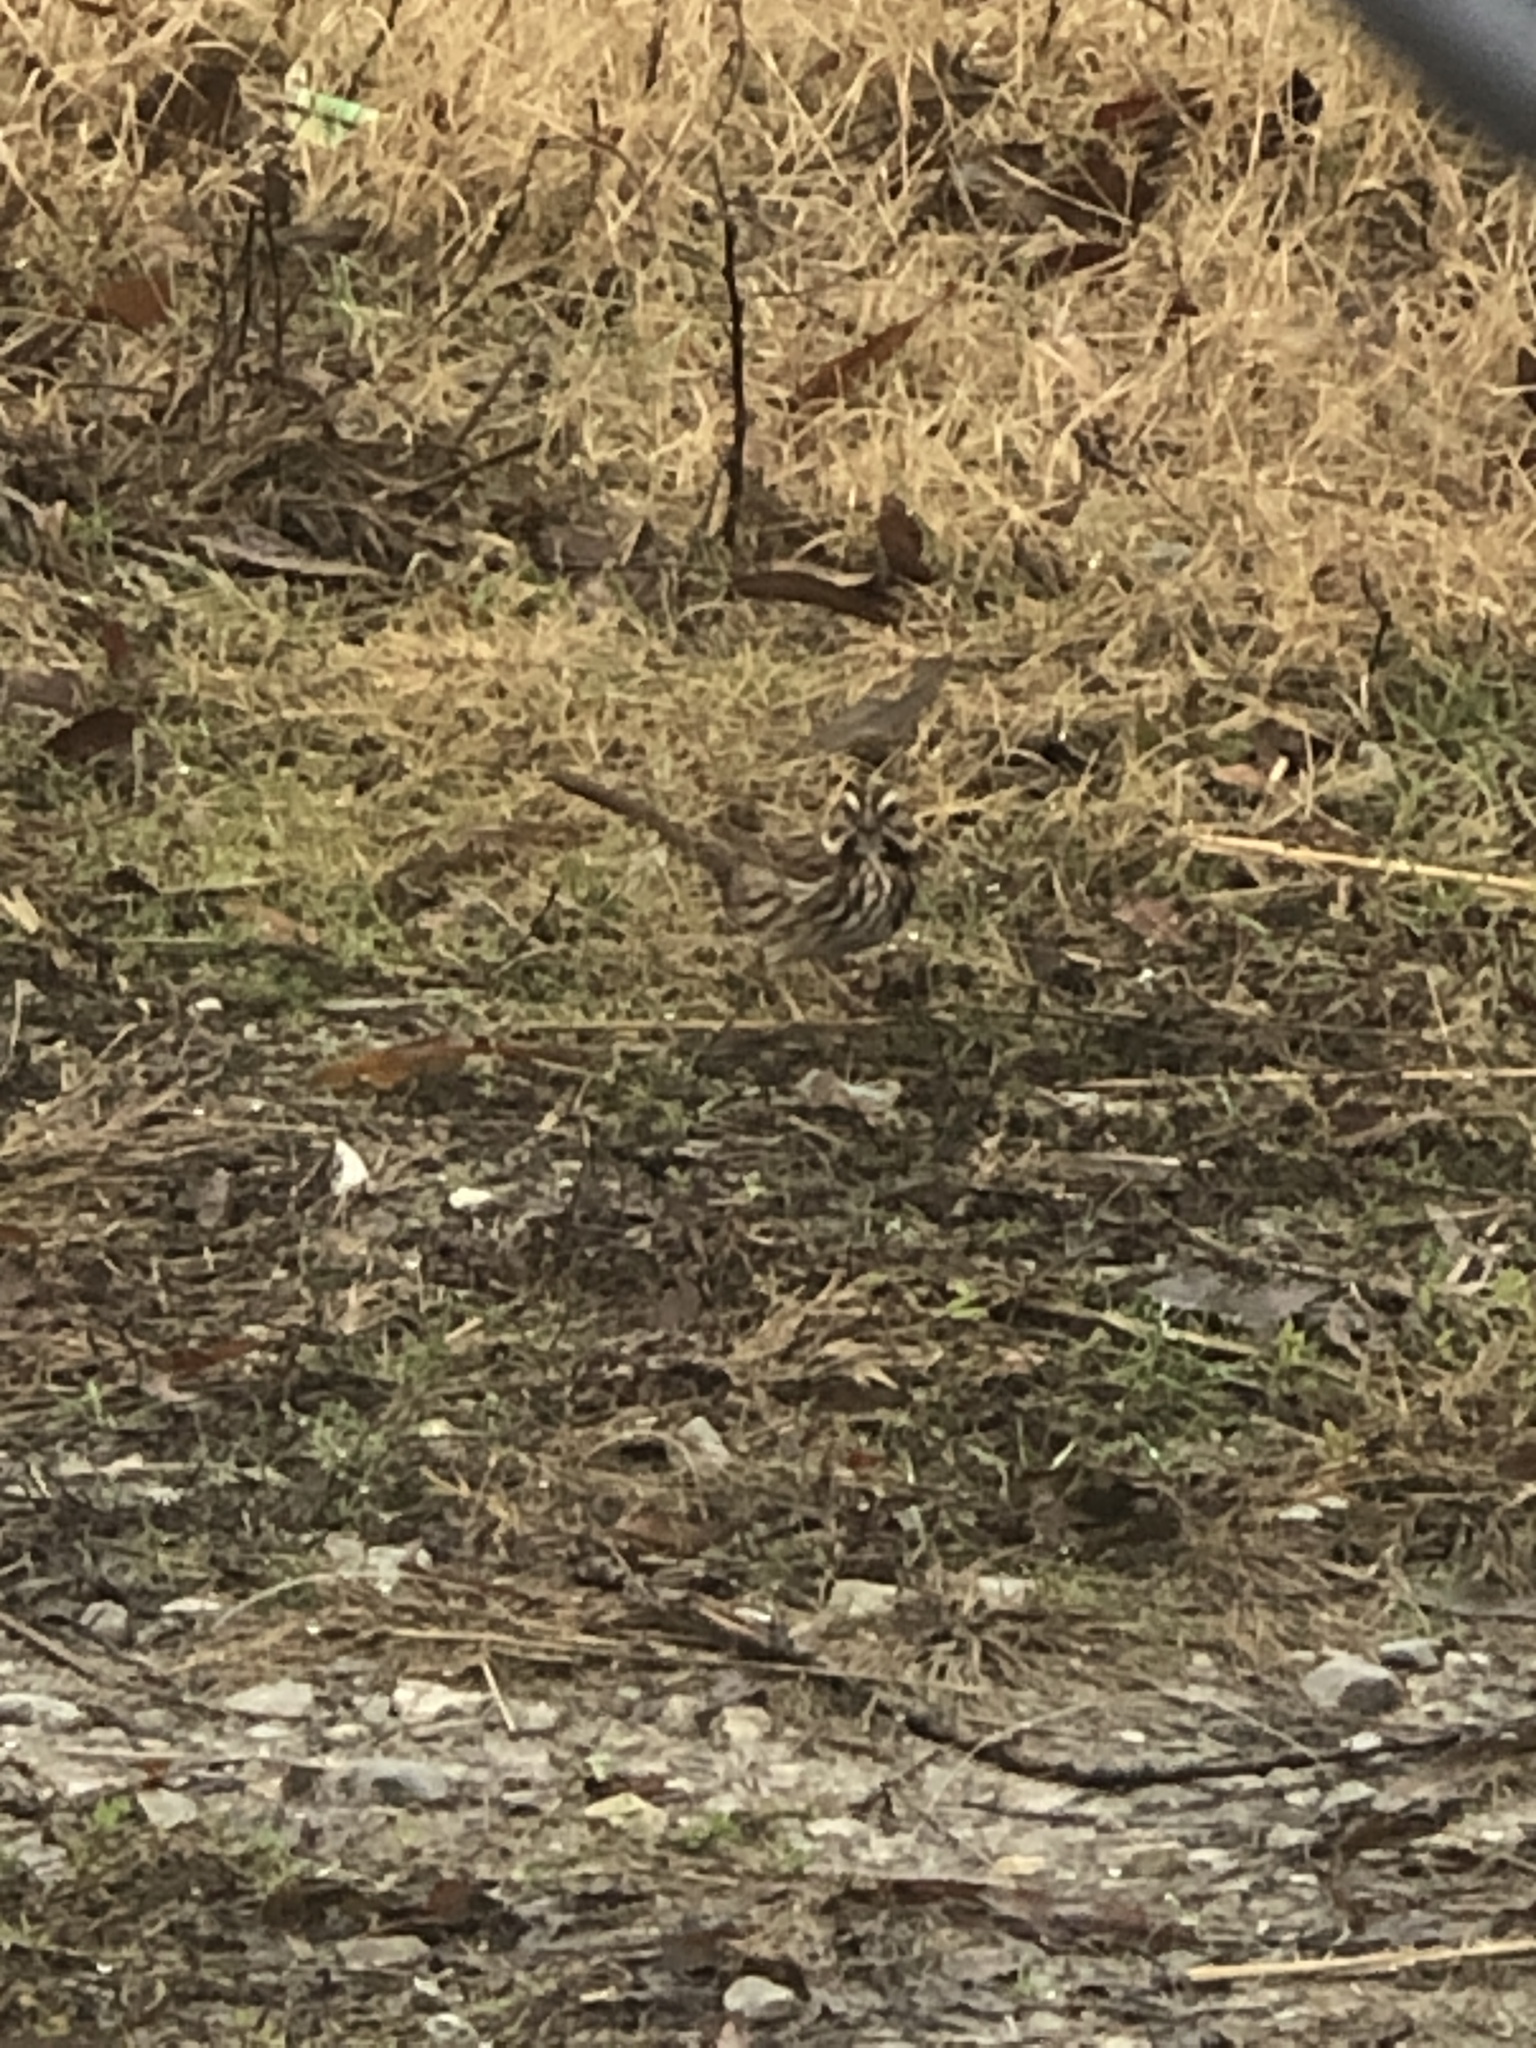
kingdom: Animalia
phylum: Chordata
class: Aves
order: Passeriformes
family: Passerellidae
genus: Melospiza
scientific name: Melospiza melodia
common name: Song sparrow
